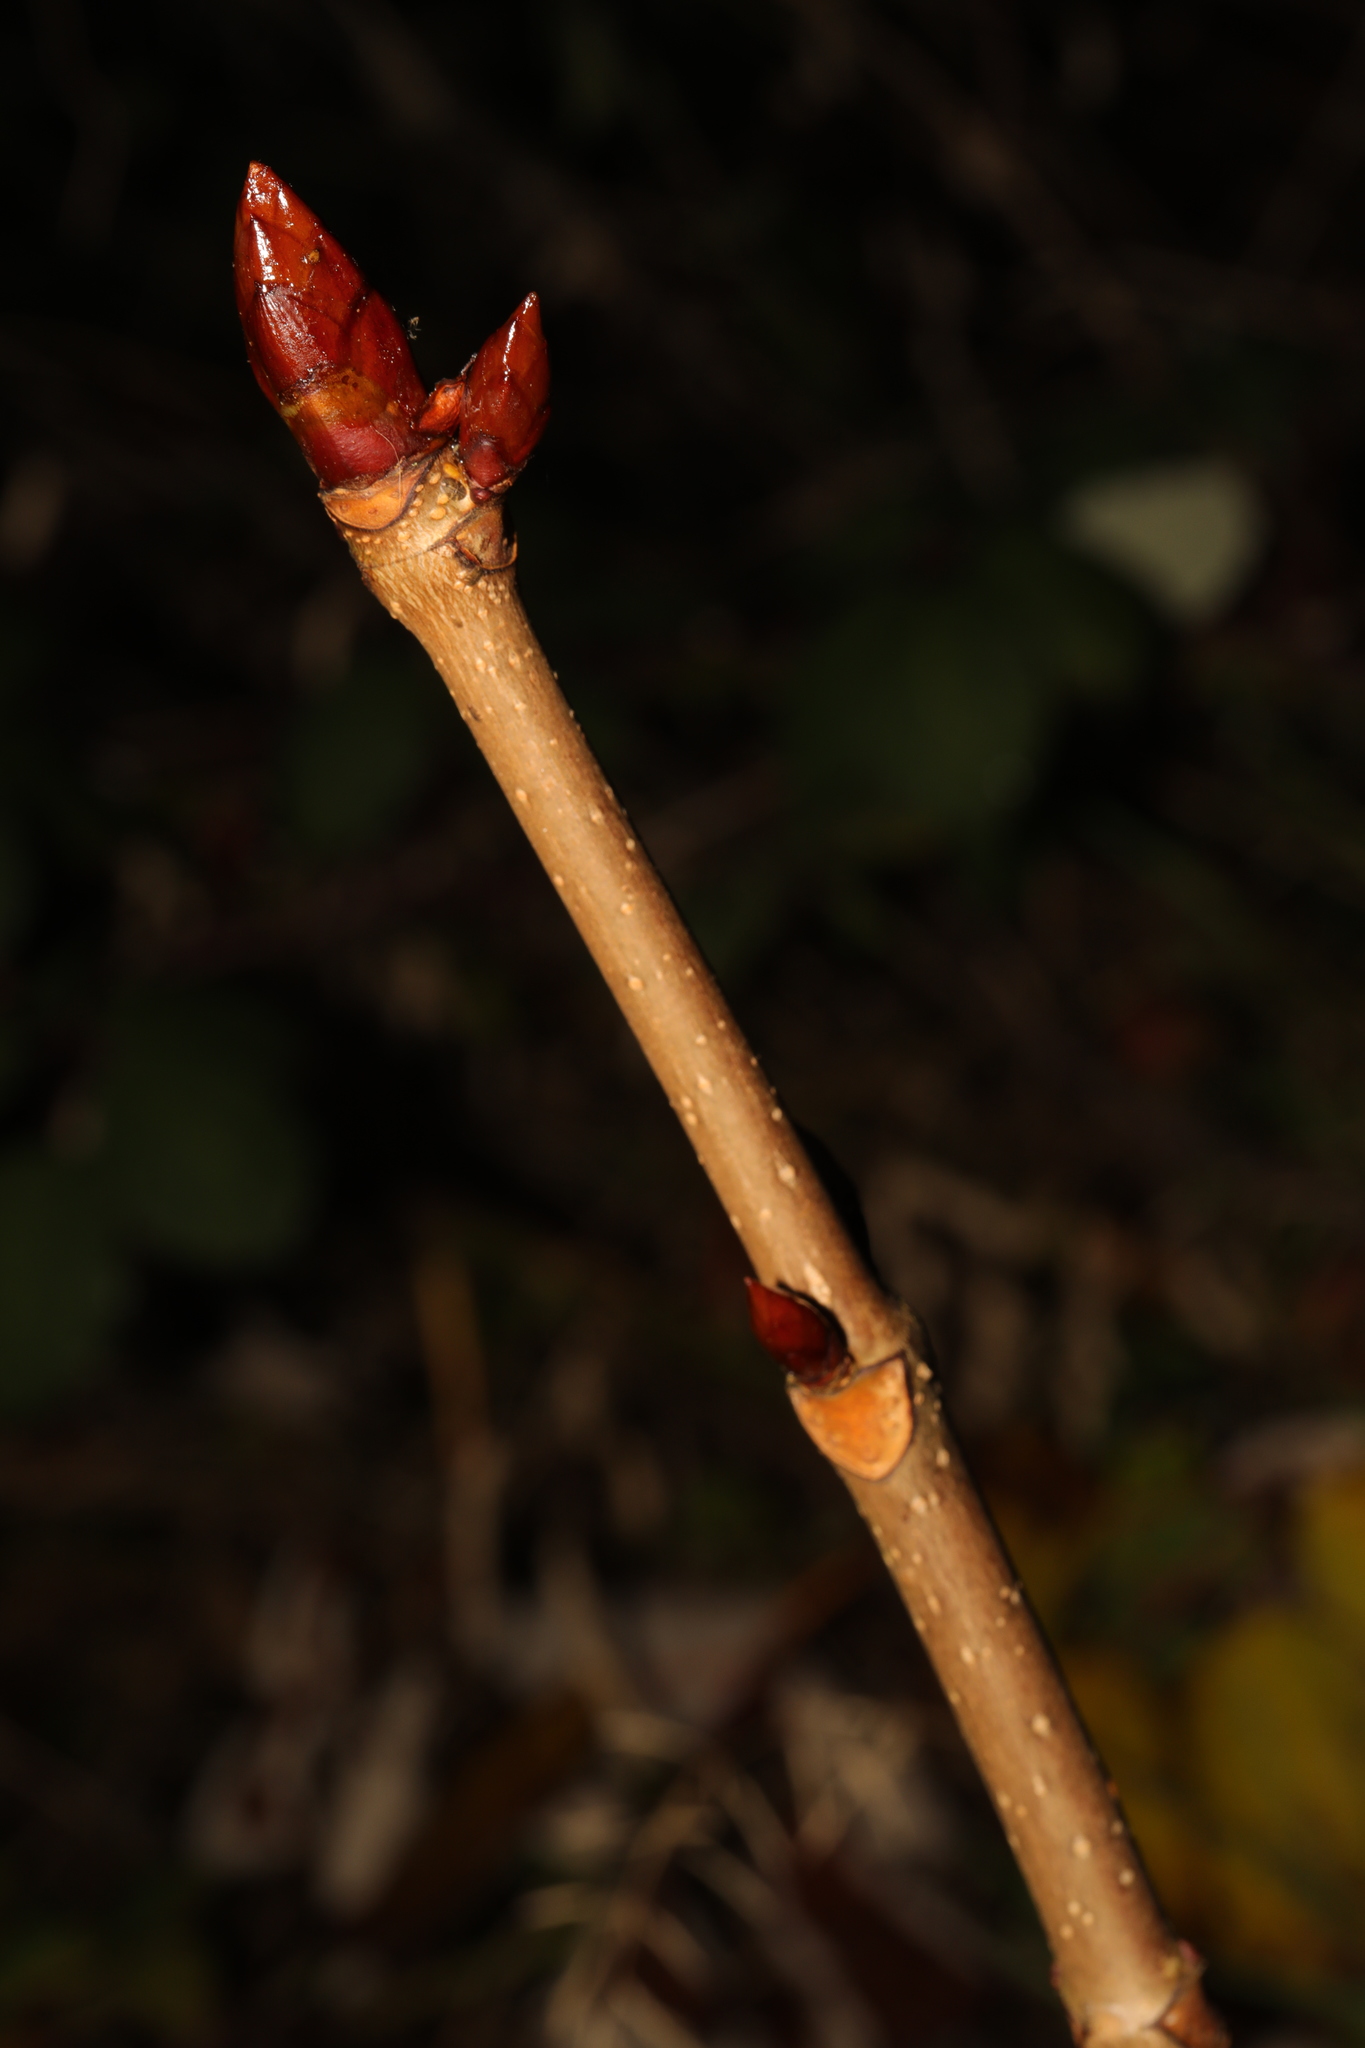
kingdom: Plantae
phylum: Tracheophyta
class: Magnoliopsida
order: Sapindales
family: Sapindaceae
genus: Aesculus
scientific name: Aesculus hippocastanum
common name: Horse-chestnut
